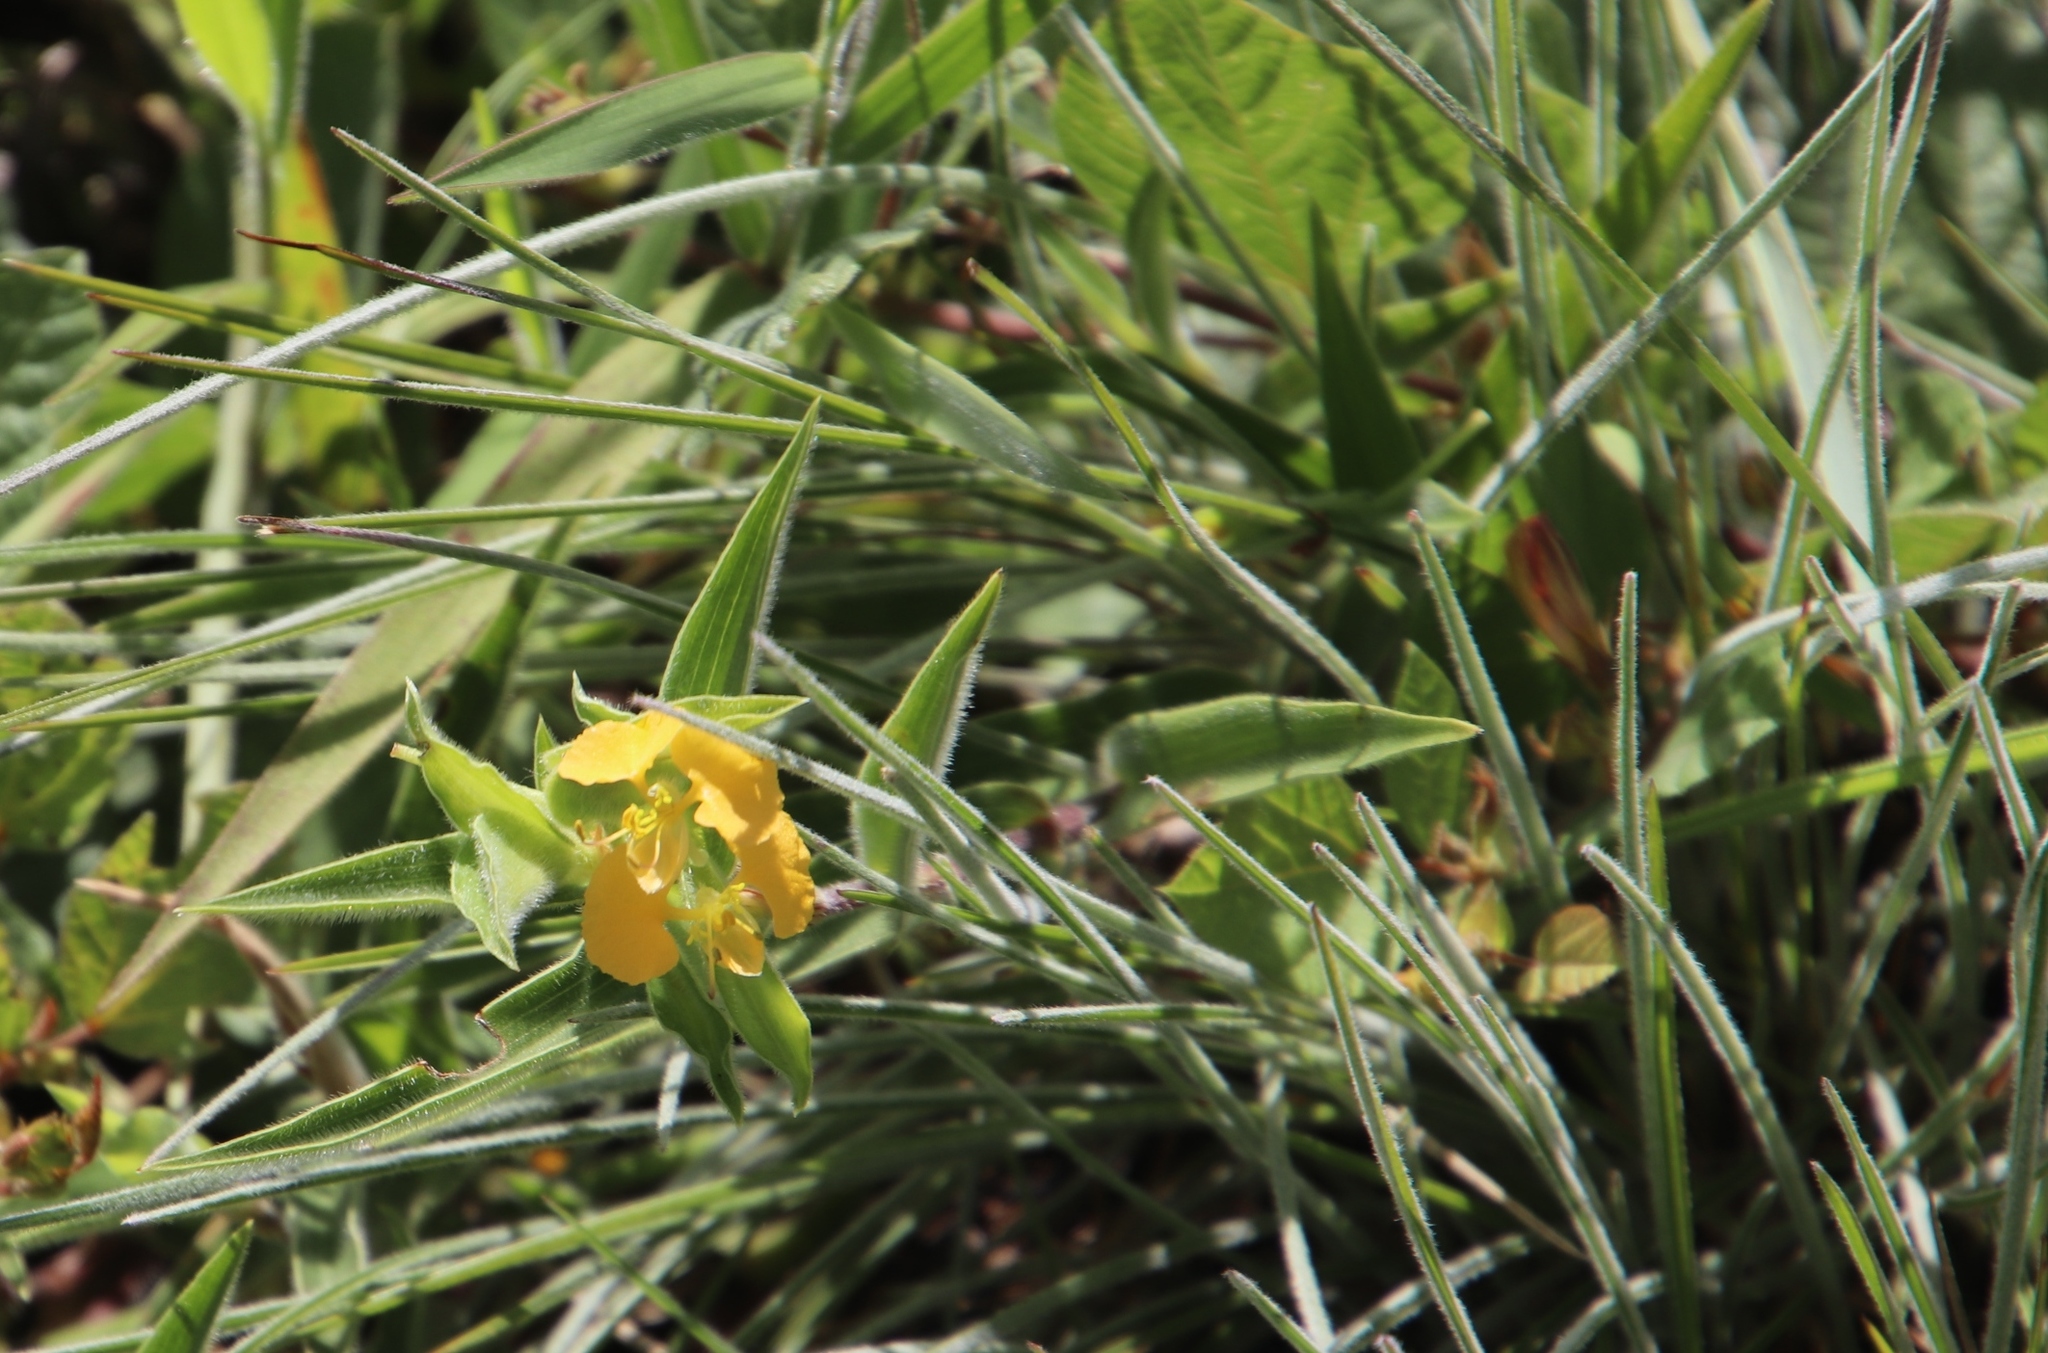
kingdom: Plantae
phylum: Tracheophyta
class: Liliopsida
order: Commelinales
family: Commelinaceae
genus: Commelina
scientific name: Commelina africana
